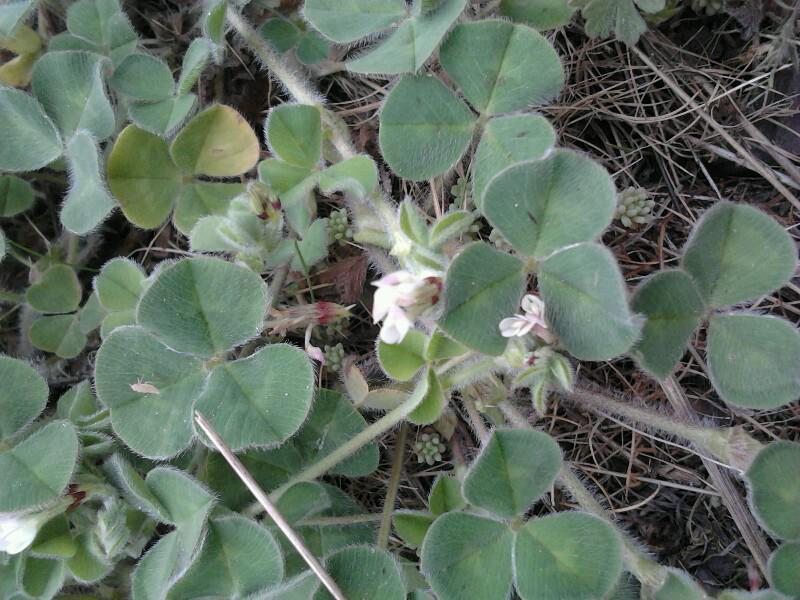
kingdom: Plantae
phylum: Tracheophyta
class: Magnoliopsida
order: Fabales
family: Fabaceae
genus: Trifolium
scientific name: Trifolium subterraneum
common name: Subterranean clover
